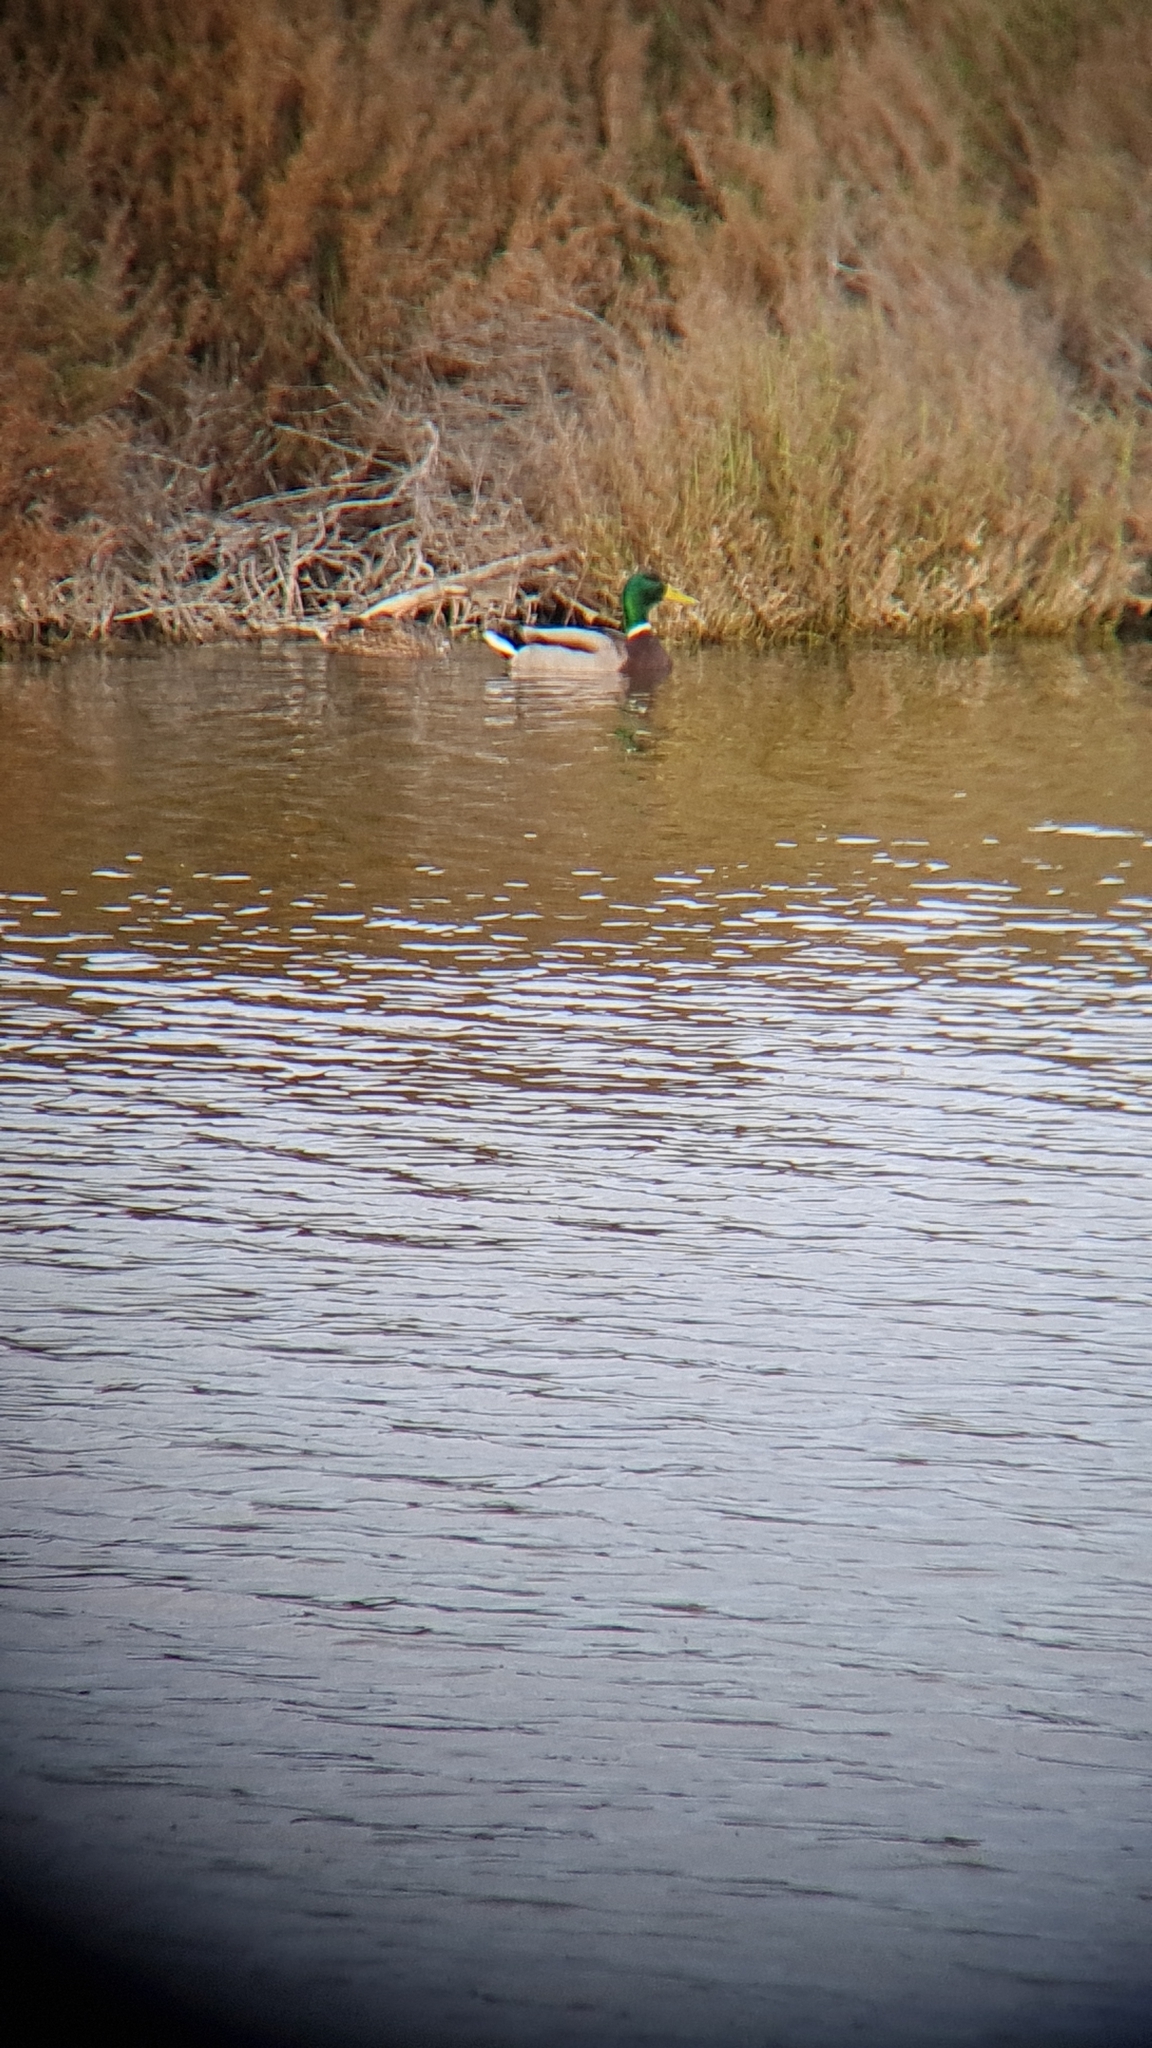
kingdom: Animalia
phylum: Chordata
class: Aves
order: Anseriformes
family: Anatidae
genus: Anas
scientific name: Anas platyrhynchos
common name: Mallard
